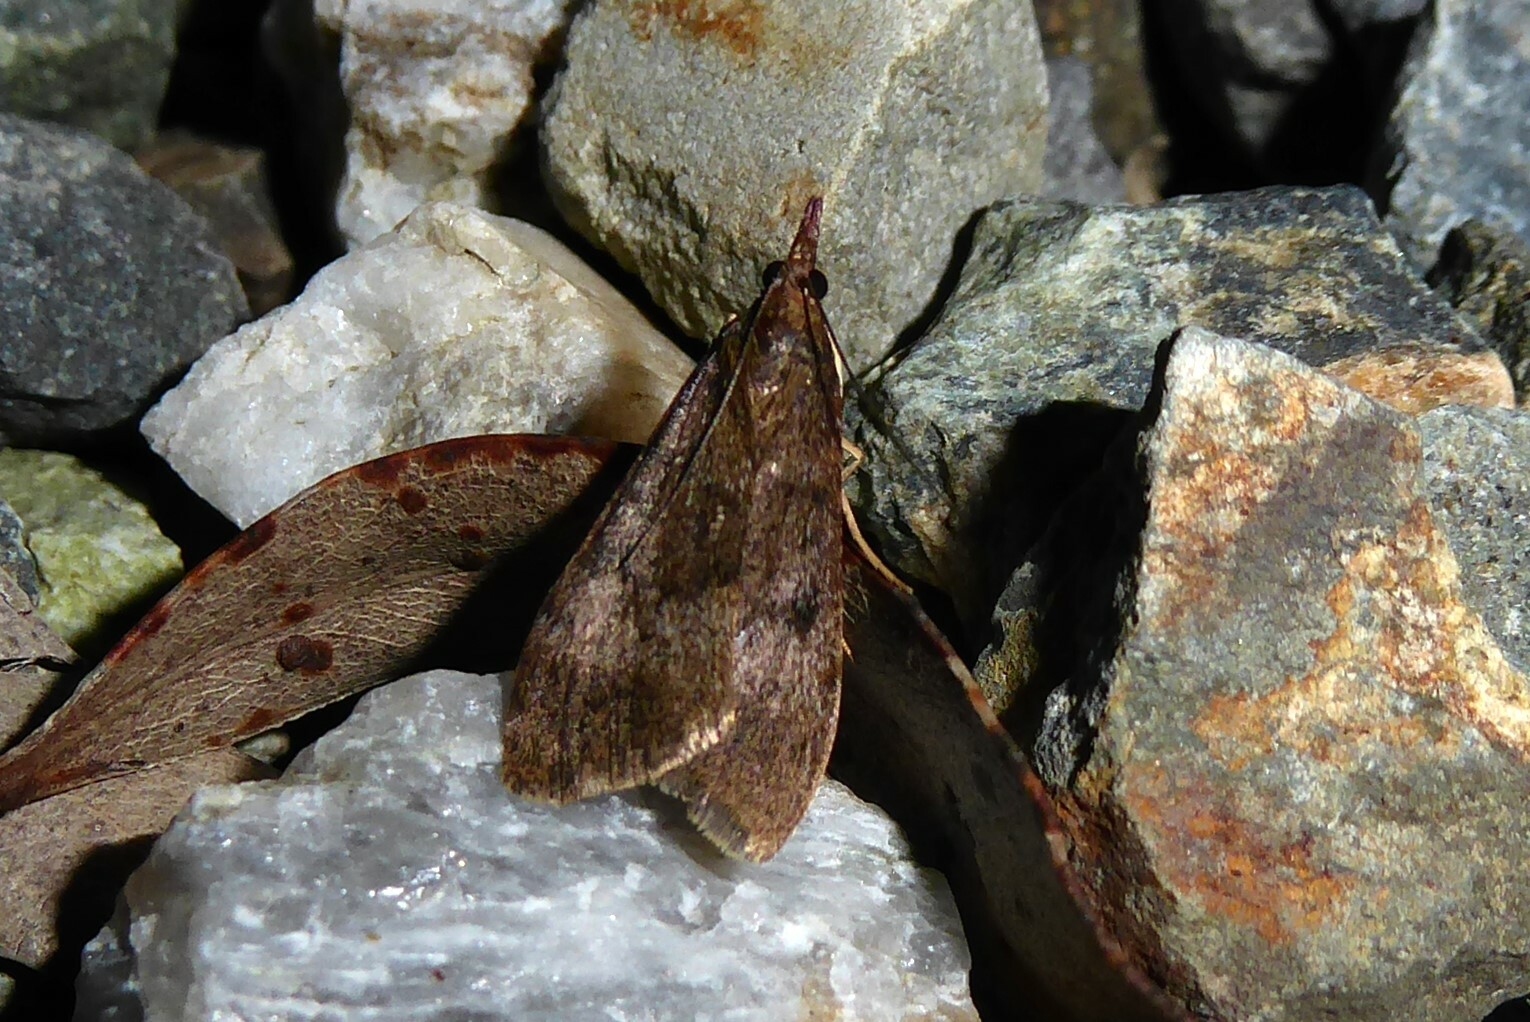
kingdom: Animalia
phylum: Arthropoda
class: Insecta
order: Lepidoptera
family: Crambidae
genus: Uresiphita
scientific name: Uresiphita
